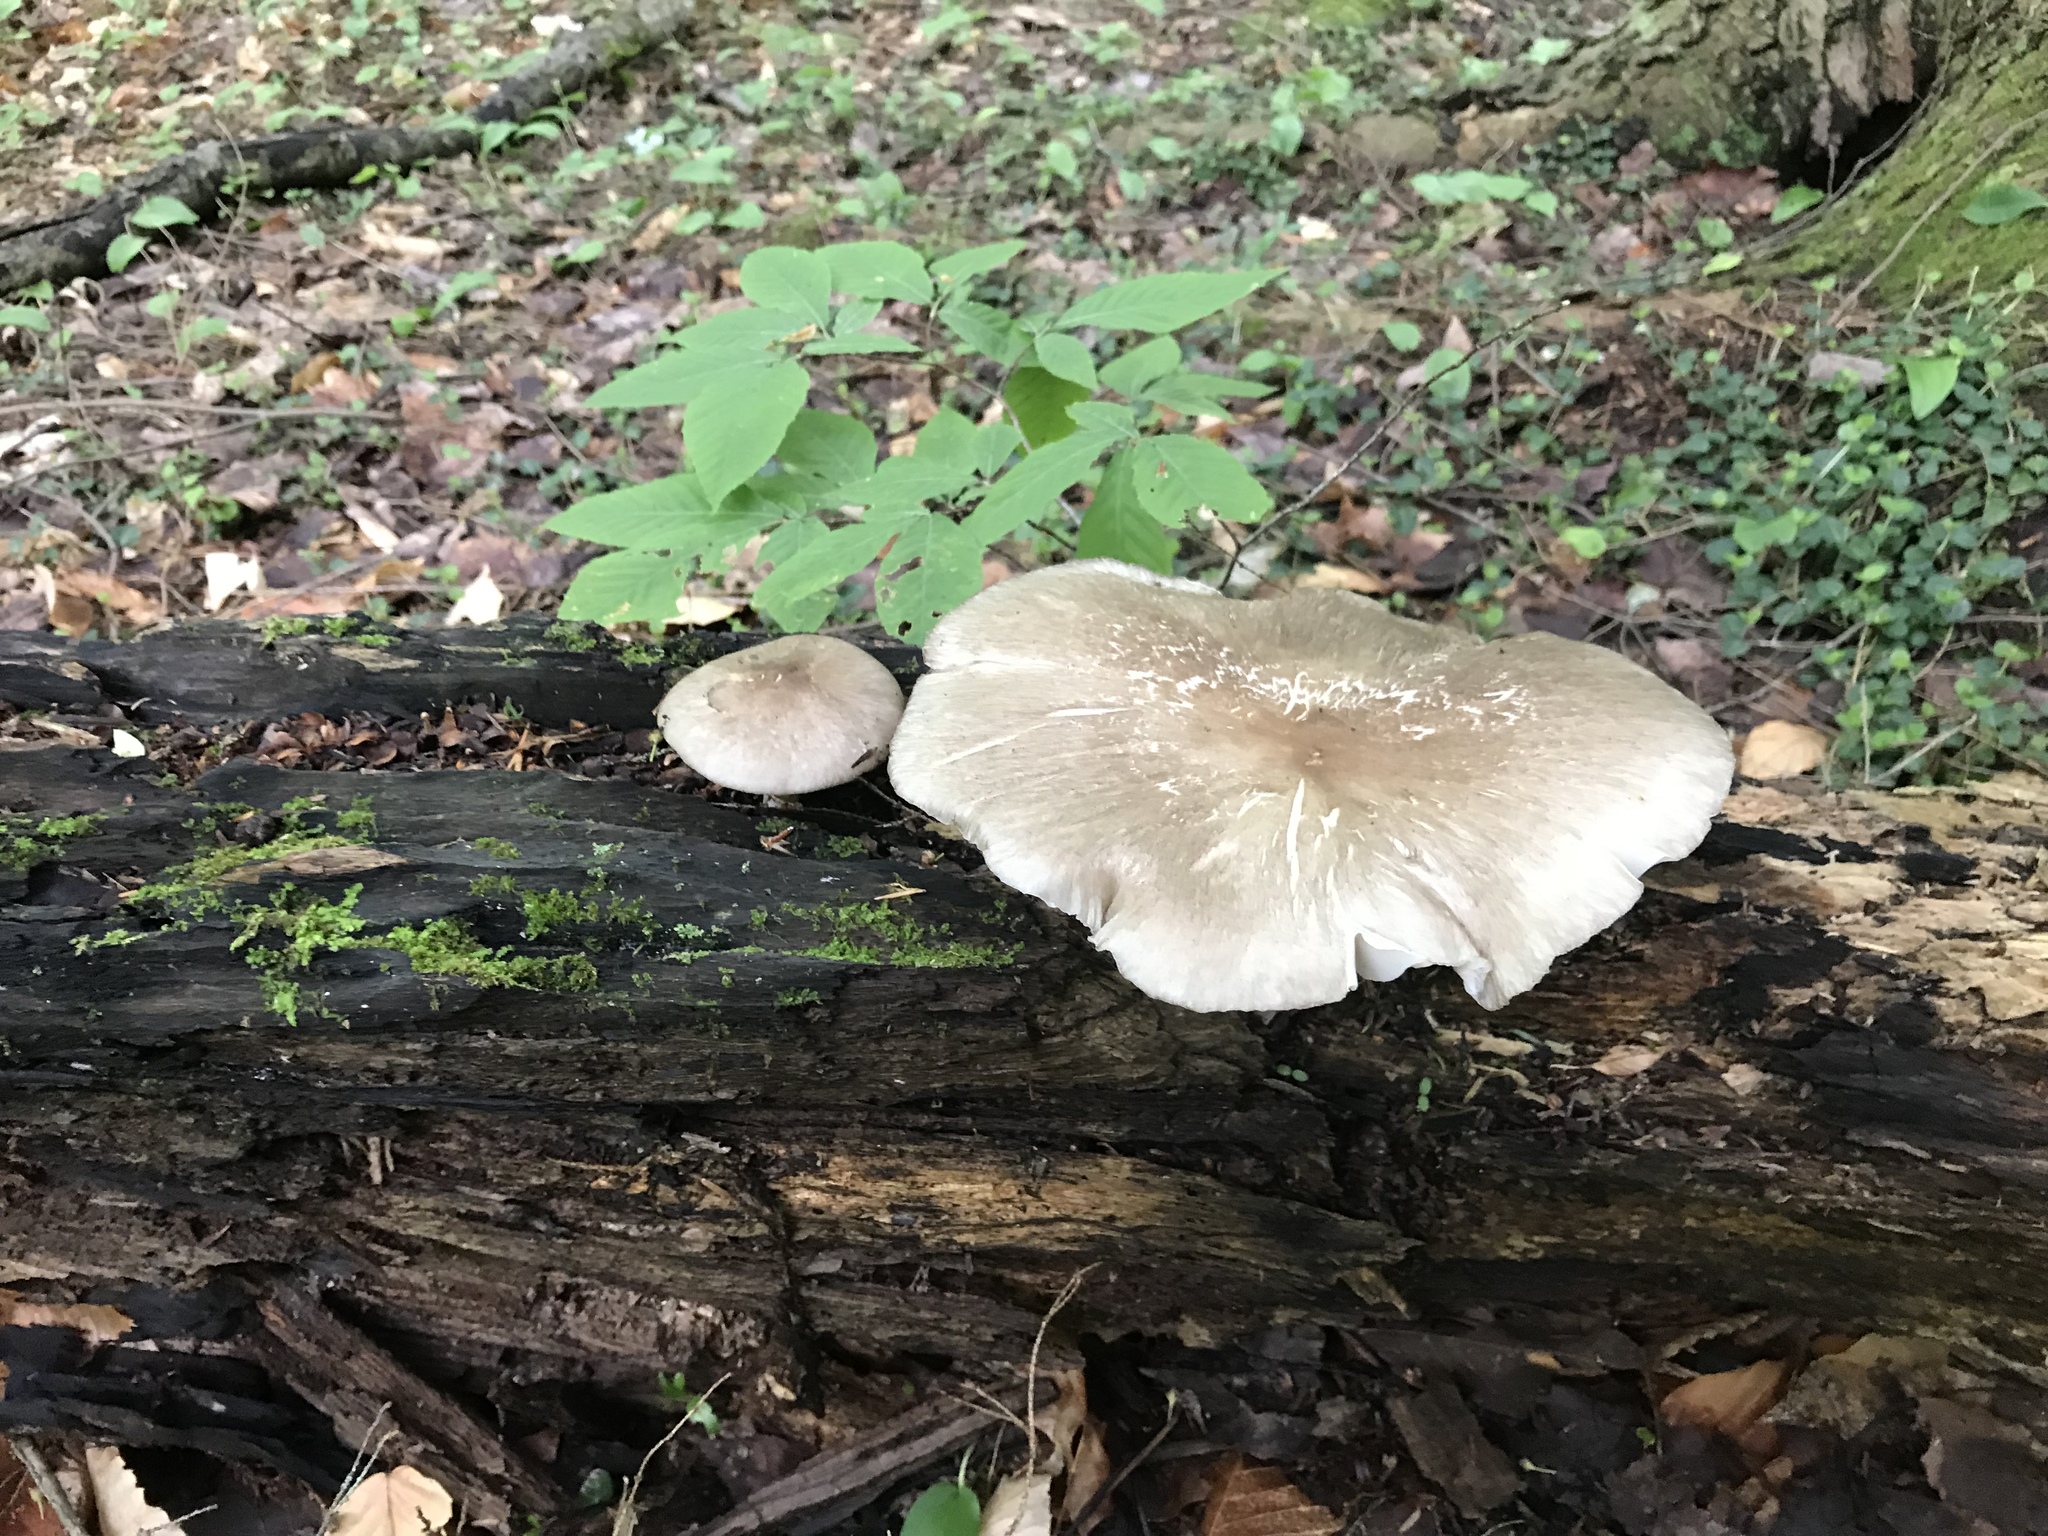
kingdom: Fungi
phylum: Basidiomycota
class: Agaricomycetes
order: Agaricales
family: Tricholomataceae
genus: Megacollybia
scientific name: Megacollybia rodmanii
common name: Eastern american platterful mushroom
